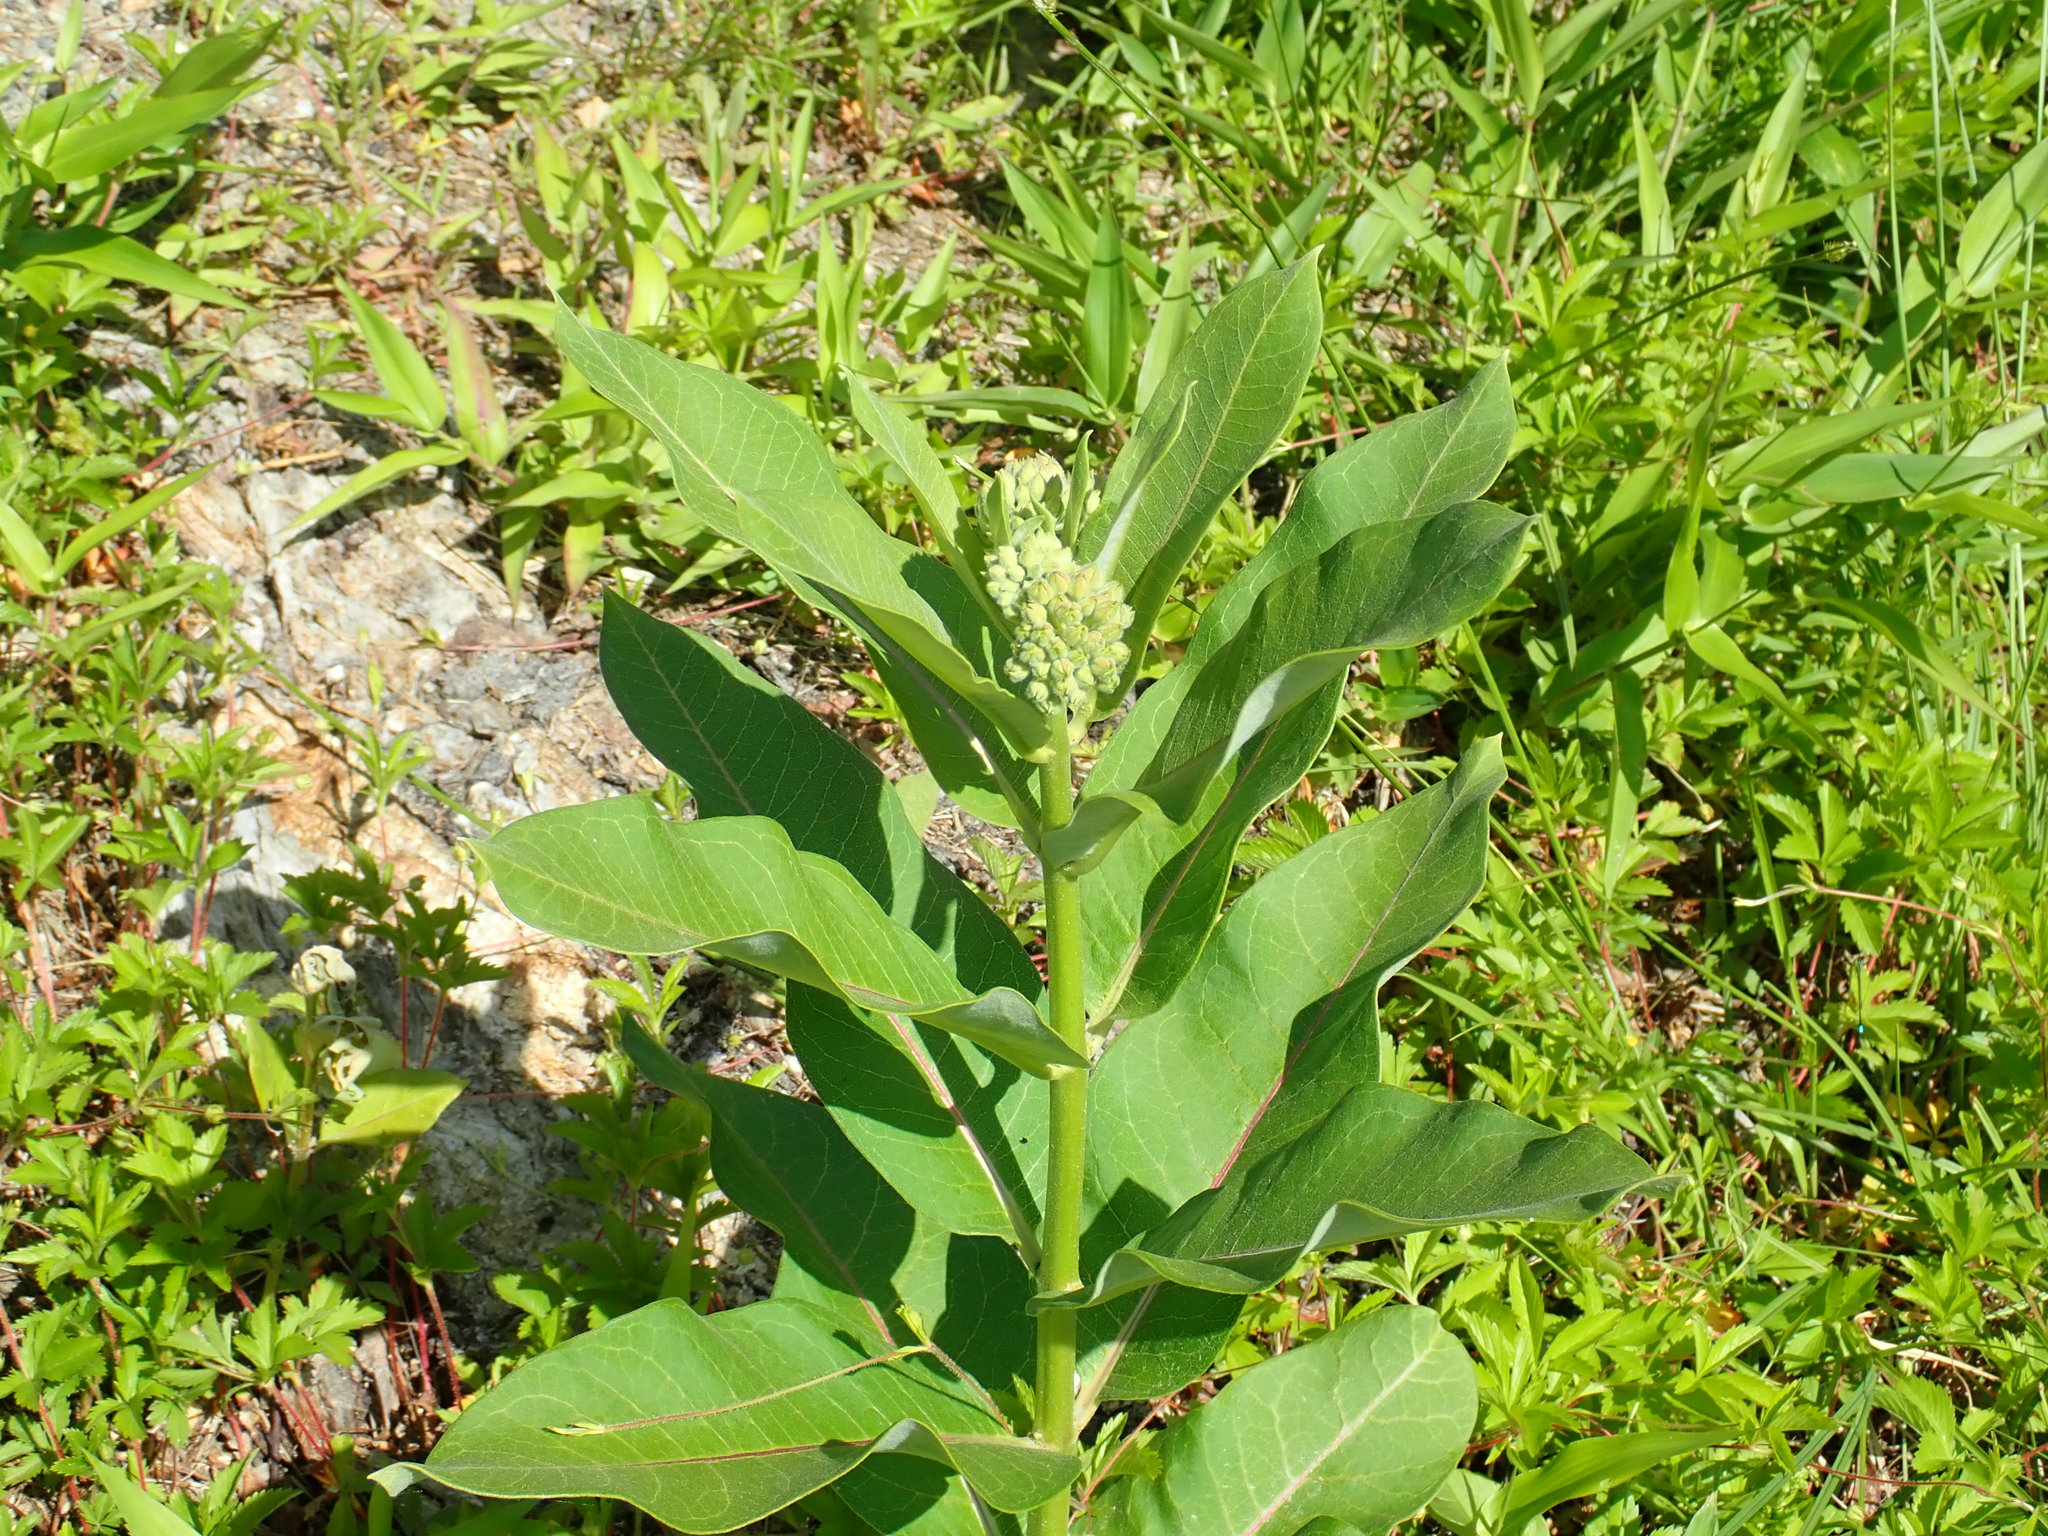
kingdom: Plantae
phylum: Tracheophyta
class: Magnoliopsida
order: Gentianales
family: Apocynaceae
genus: Asclepias
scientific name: Asclepias syriaca
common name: Common milkweed
